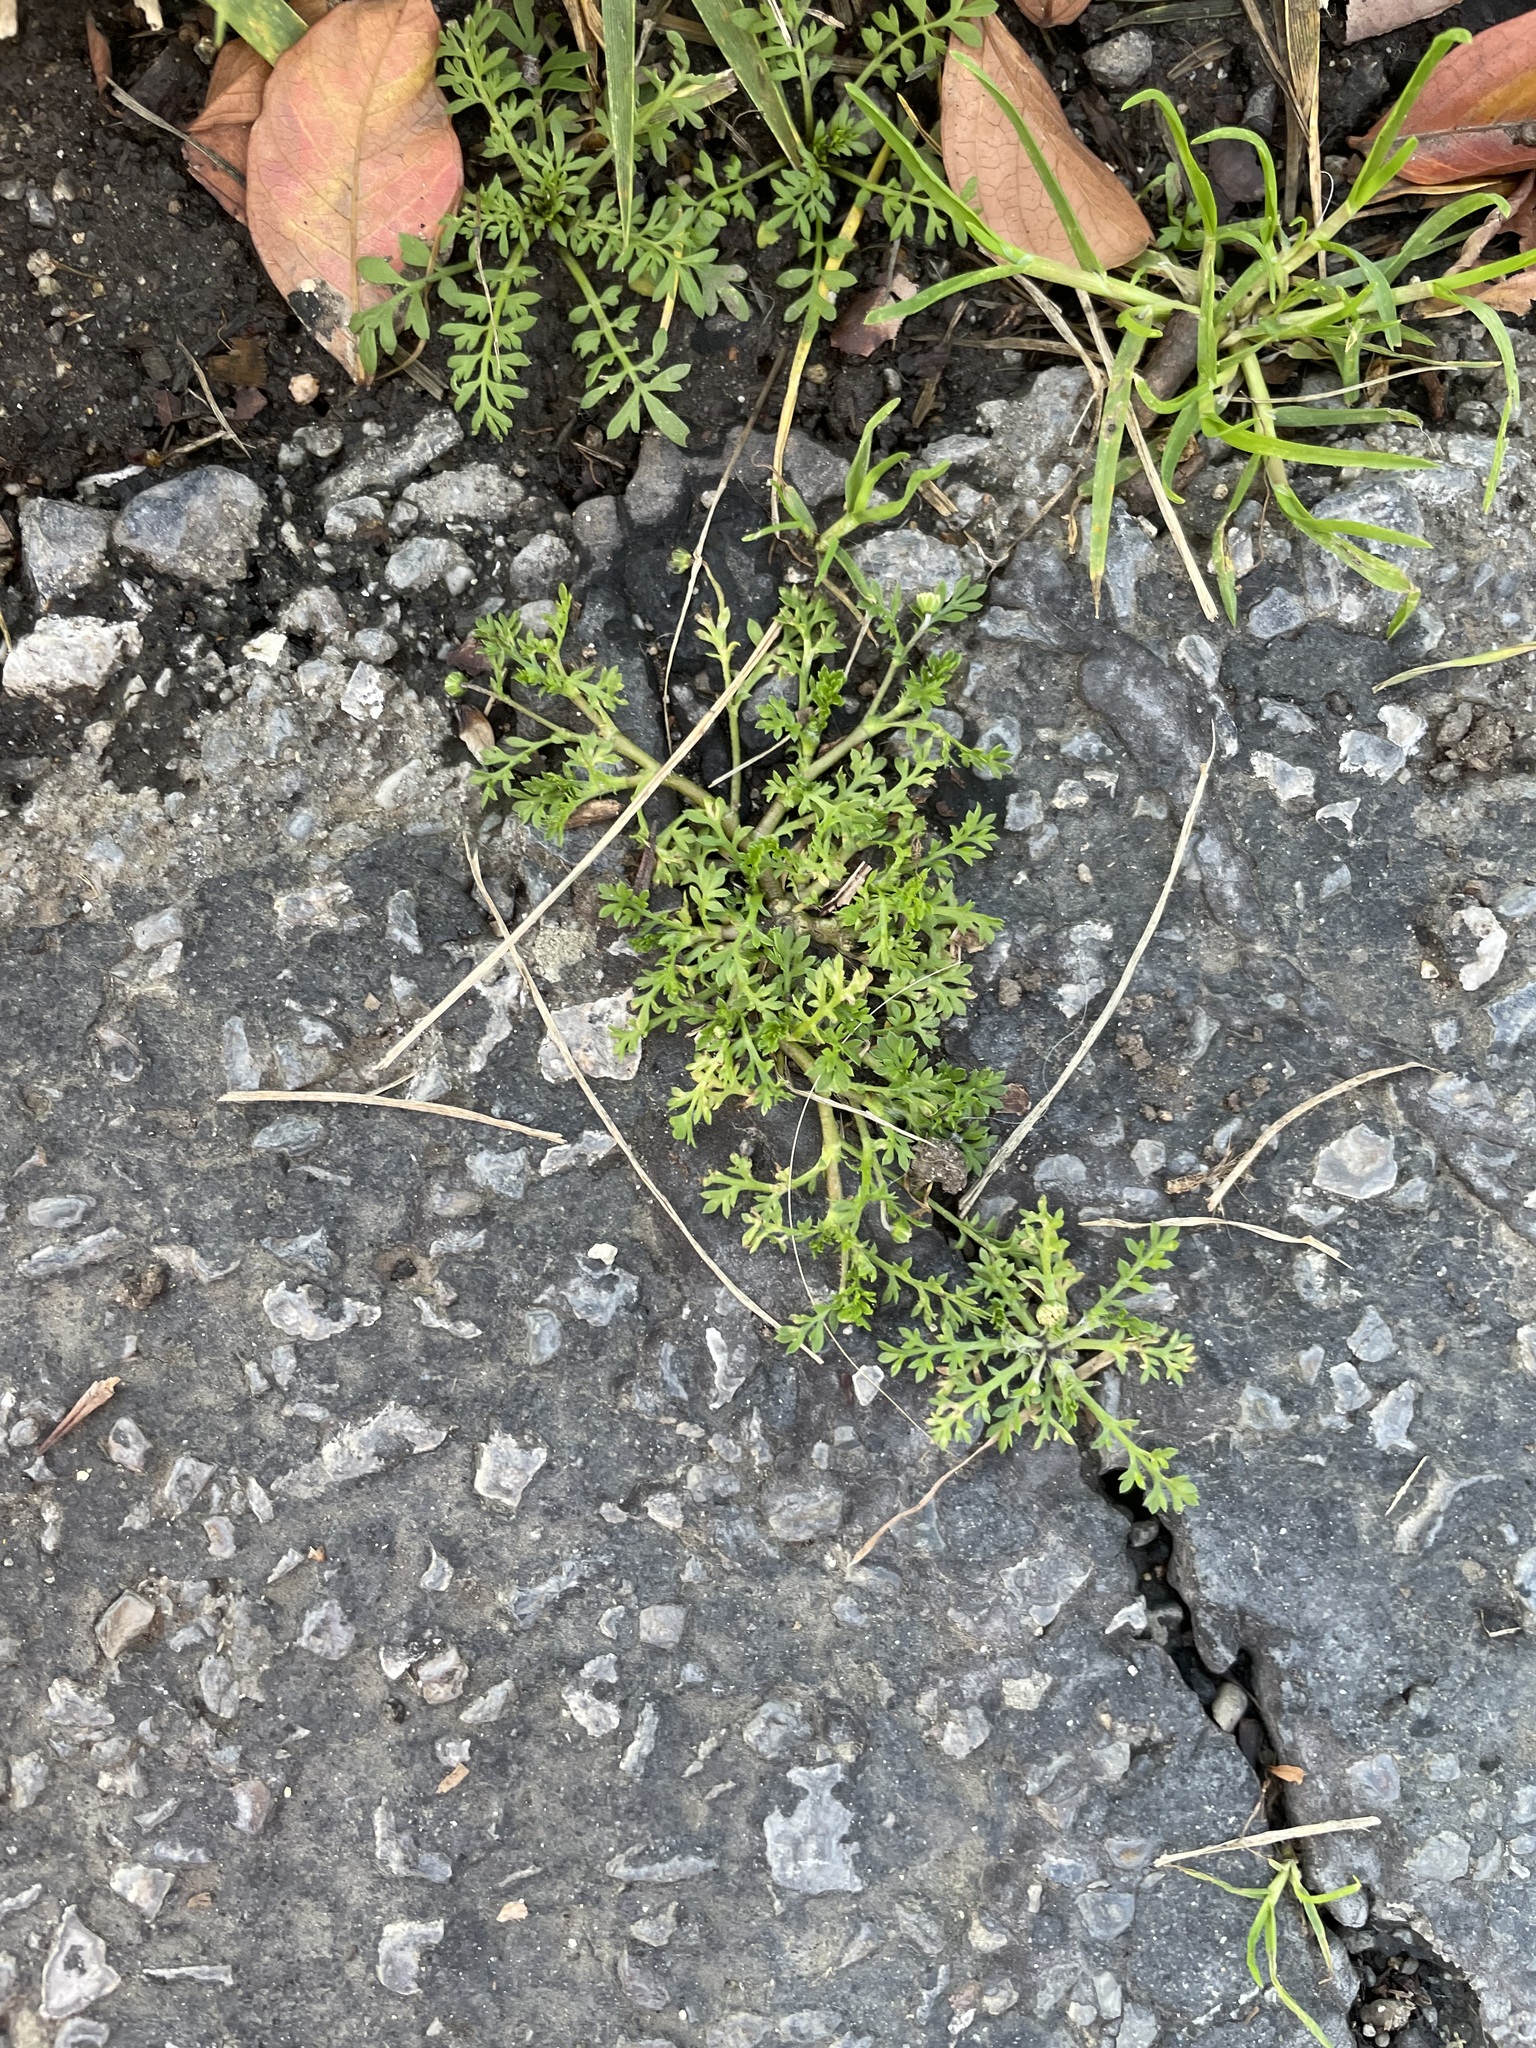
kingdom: Plantae
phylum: Tracheophyta
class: Magnoliopsida
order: Brassicales
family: Brassicaceae
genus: Lepidium
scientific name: Lepidium didymum
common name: Lesser swinecress
